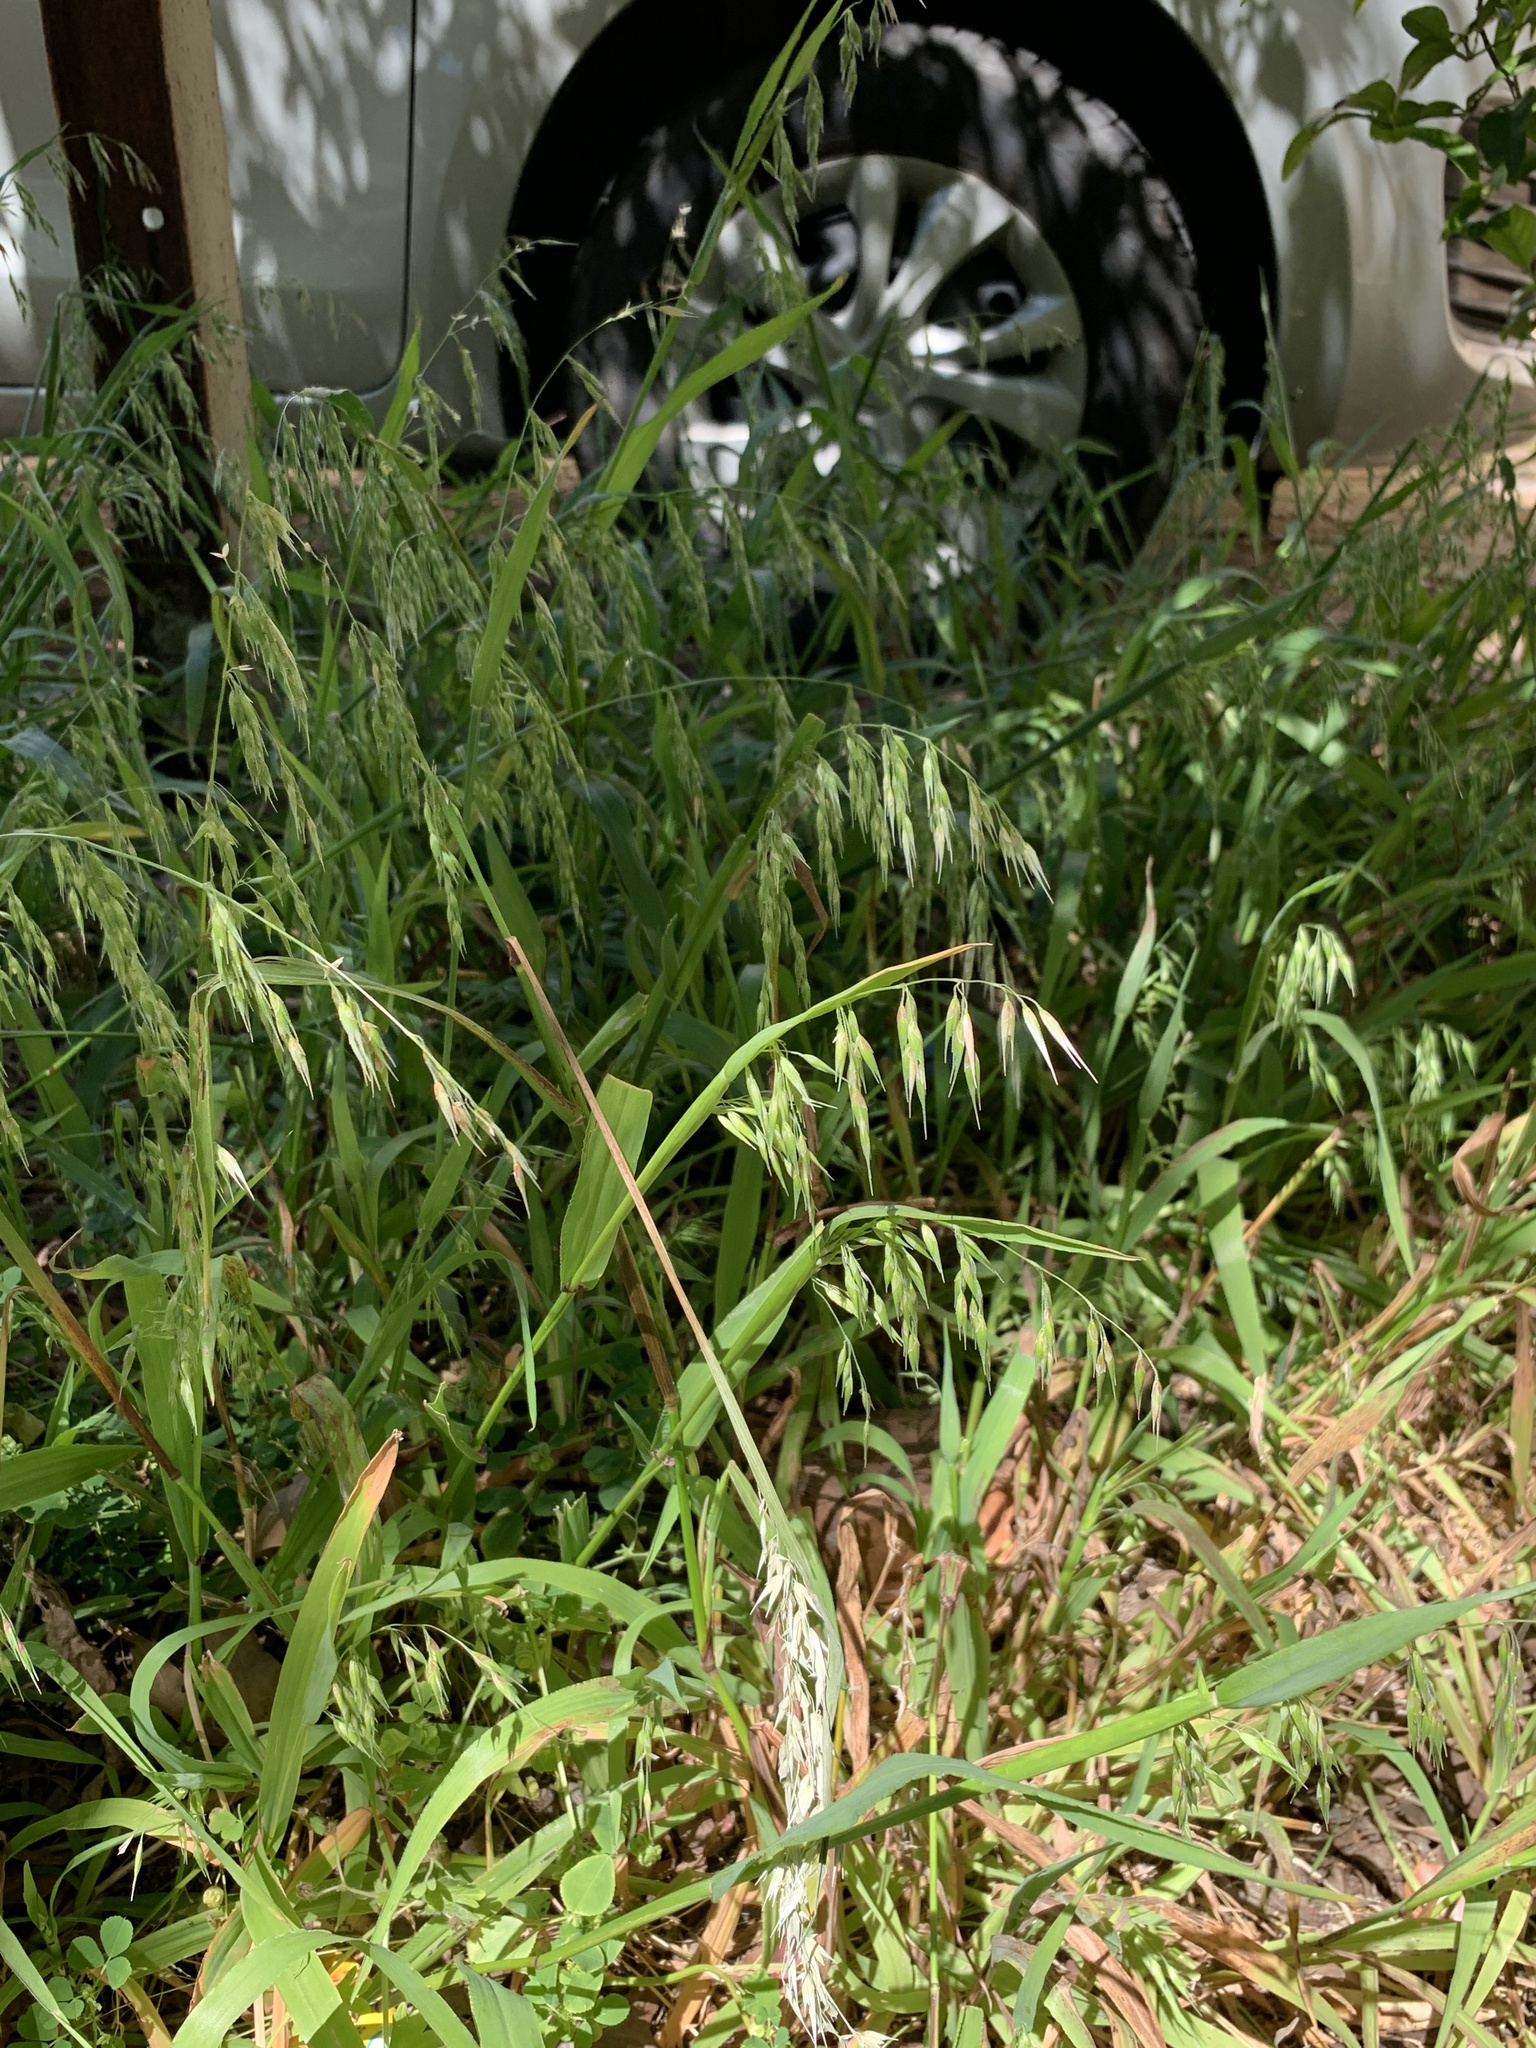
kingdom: Plantae
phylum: Tracheophyta
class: Liliopsida
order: Poales
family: Poaceae
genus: Ehrharta
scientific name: Ehrharta longiflora
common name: Longflowered veldtgrass
